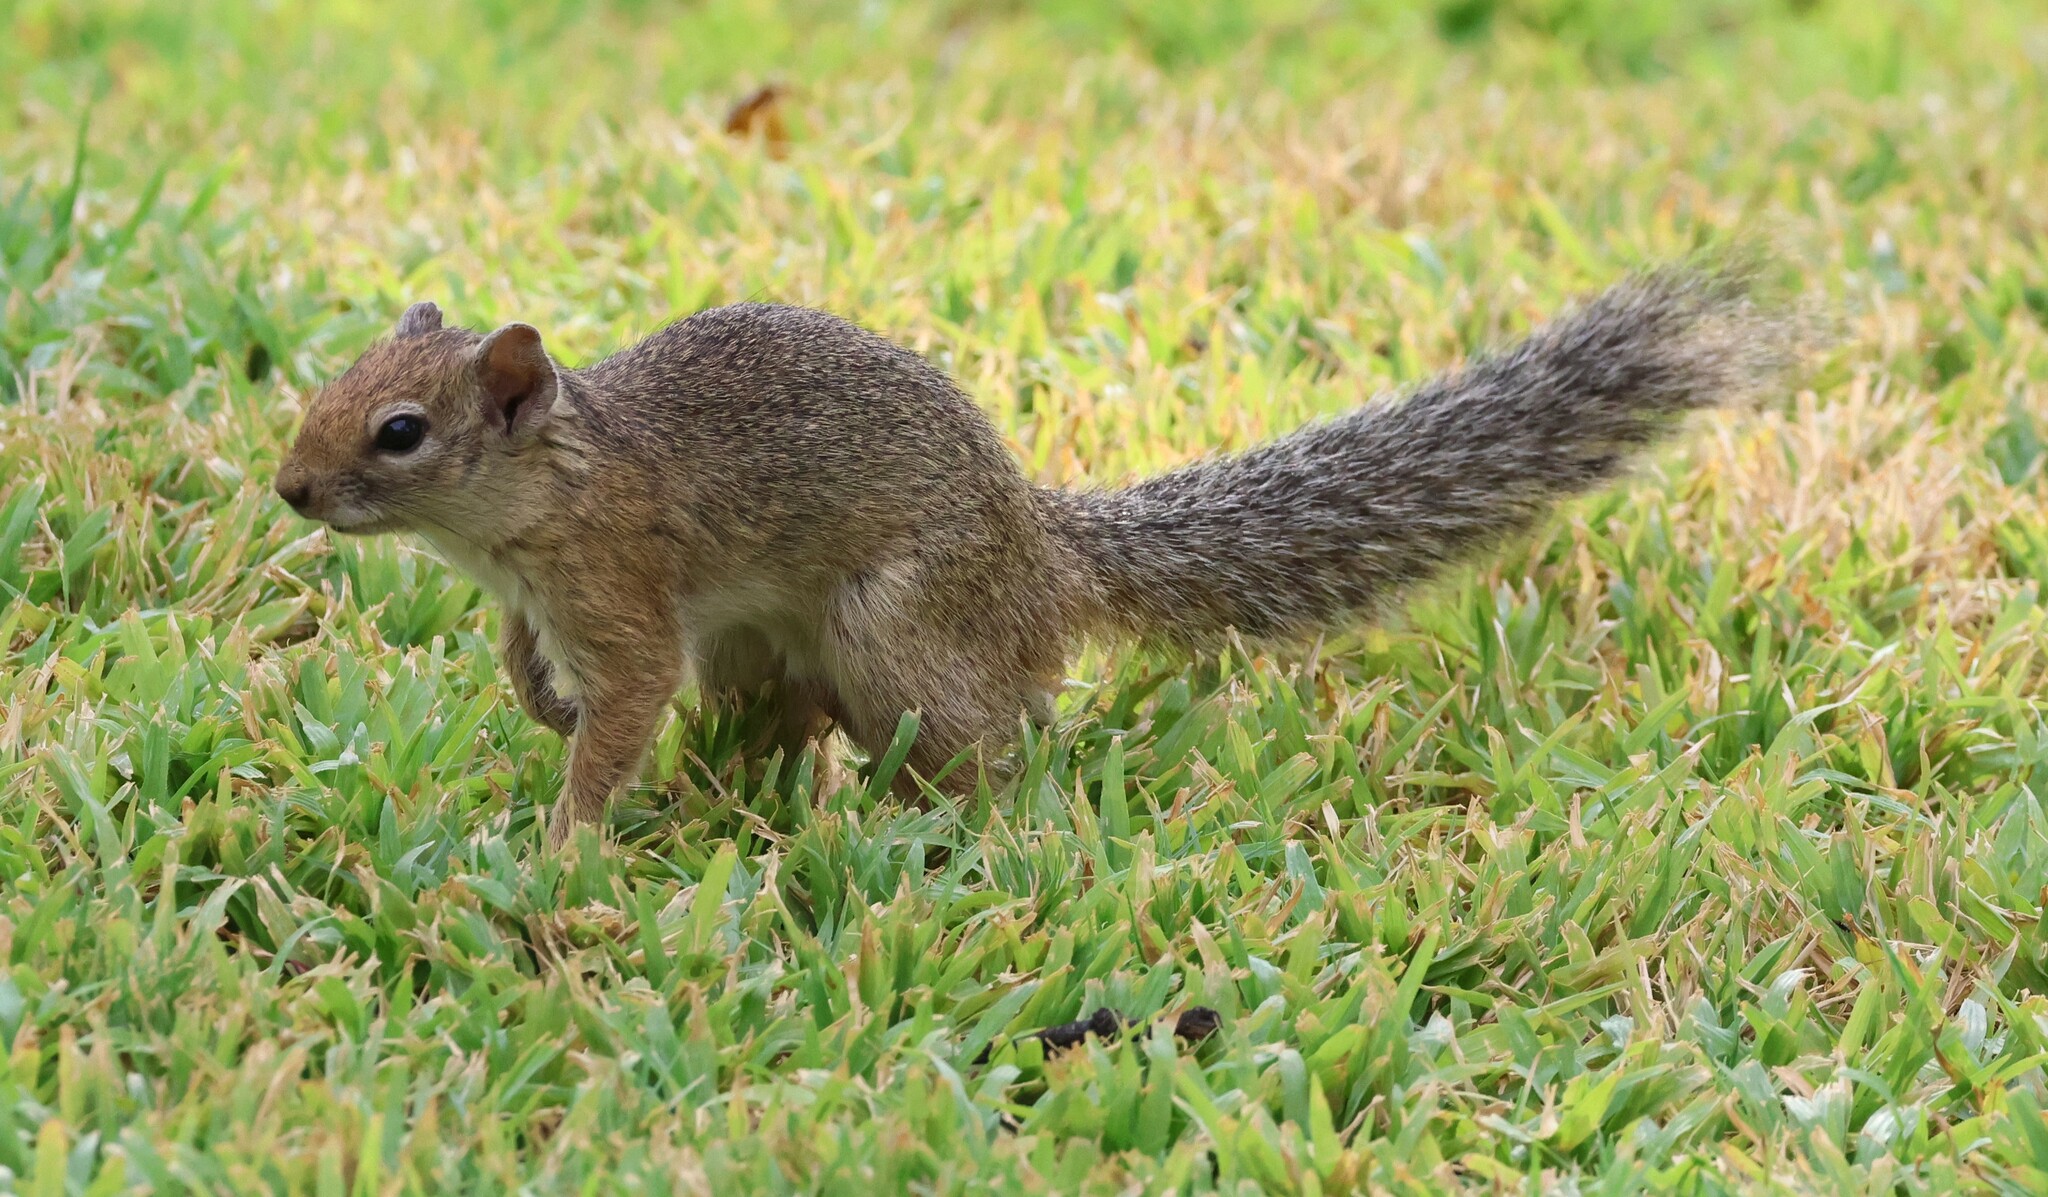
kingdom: Animalia
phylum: Chordata
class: Mammalia
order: Rodentia
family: Sciuridae
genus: Paraxerus
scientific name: Paraxerus cepapi
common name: Smith's bush squirrel
